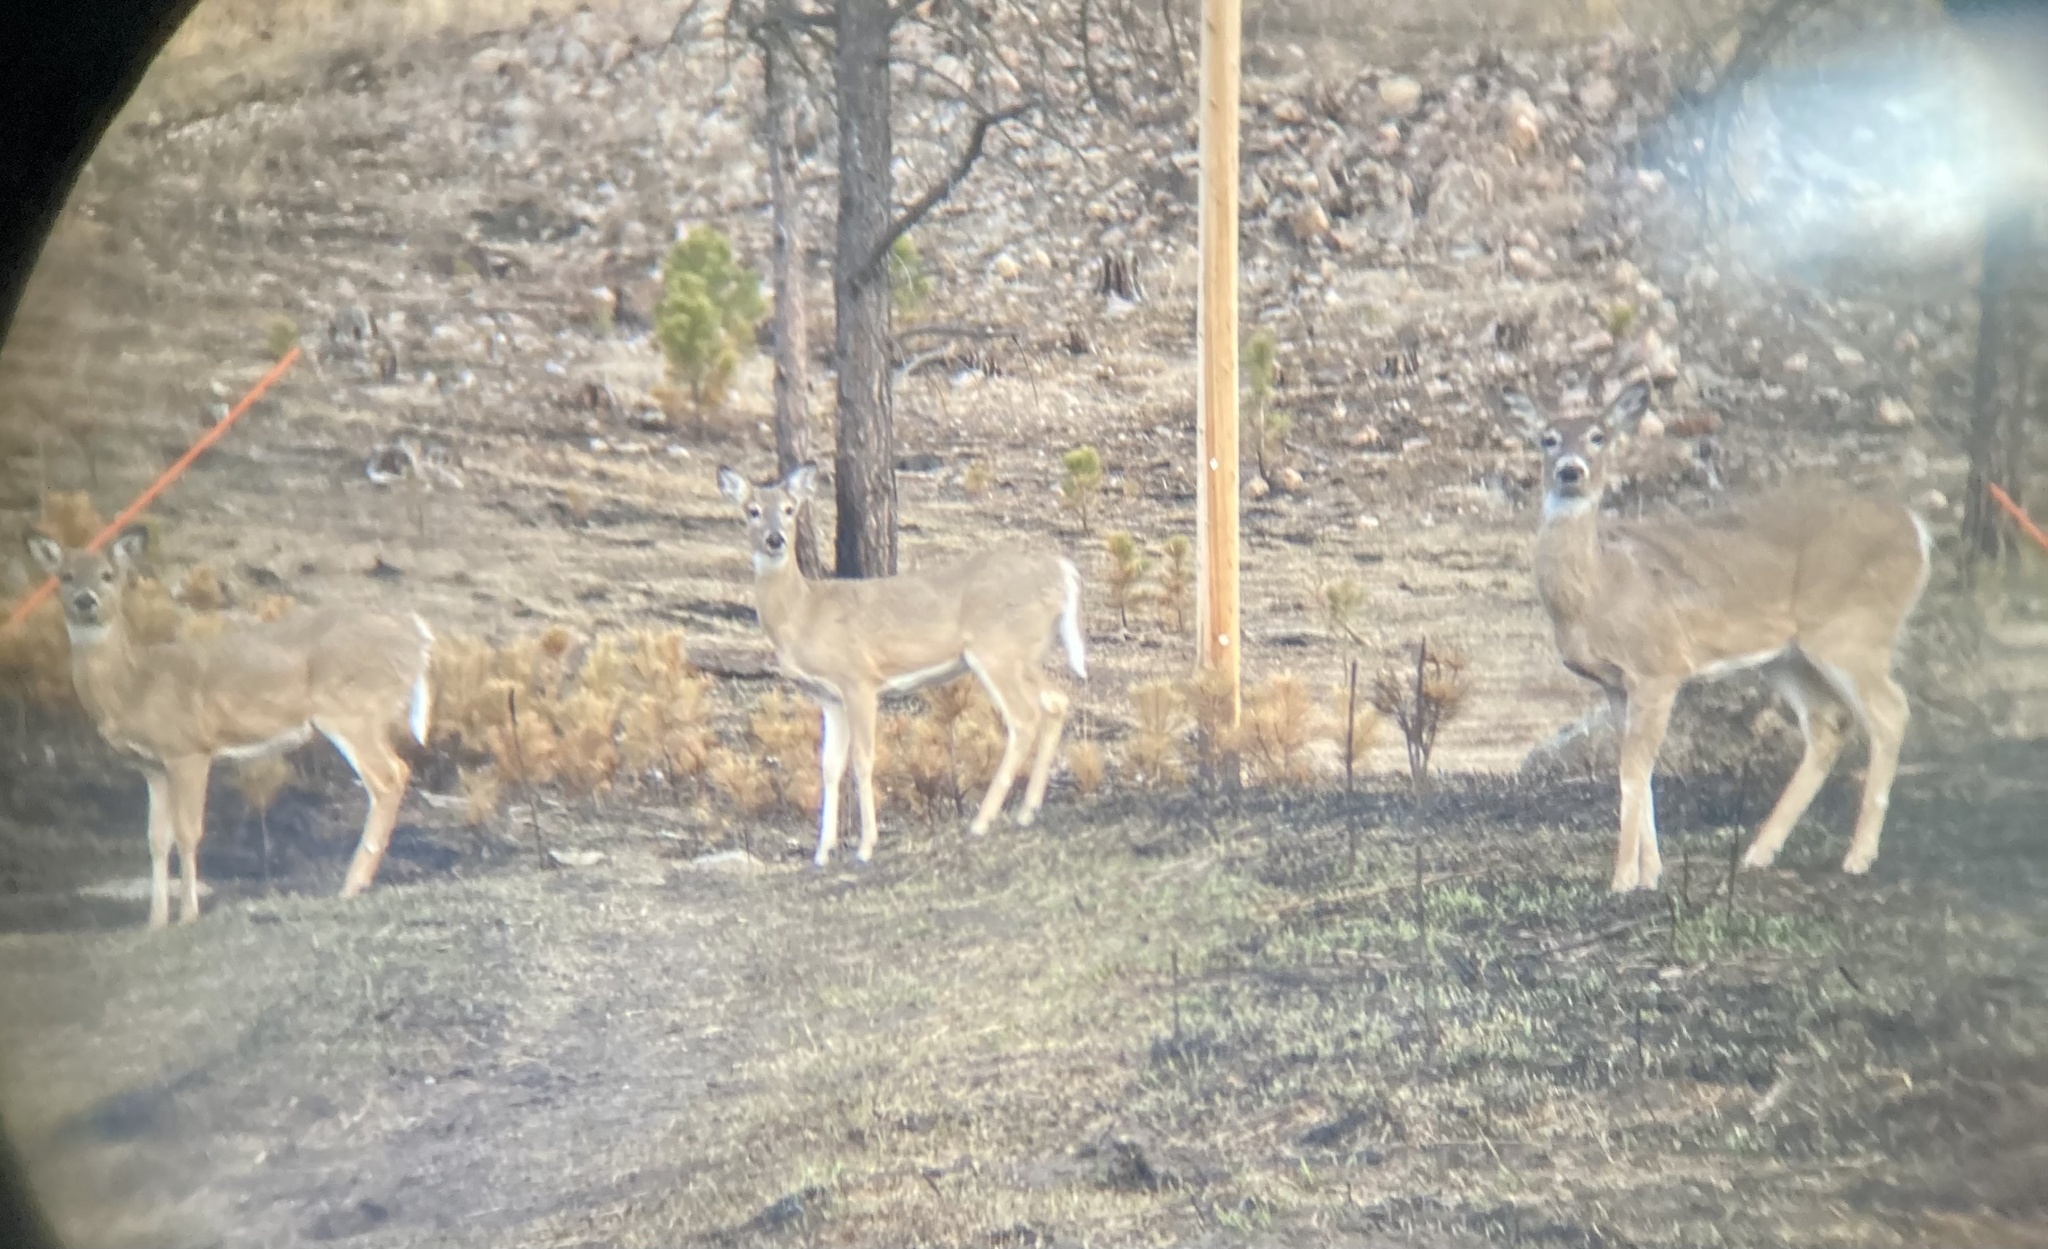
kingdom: Animalia
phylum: Chordata
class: Mammalia
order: Artiodactyla
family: Cervidae
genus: Odocoileus
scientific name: Odocoileus virginianus
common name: White-tailed deer
